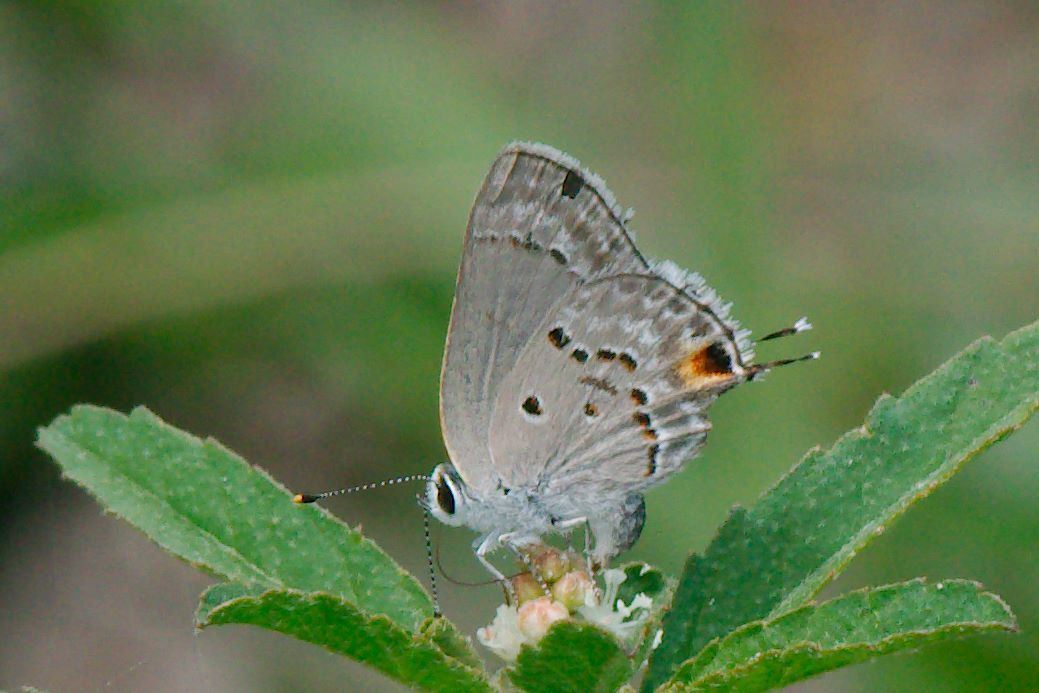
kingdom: Animalia
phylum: Arthropoda
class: Insecta
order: Lepidoptera
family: Lycaenidae
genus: Callicista
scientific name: Callicista columella
